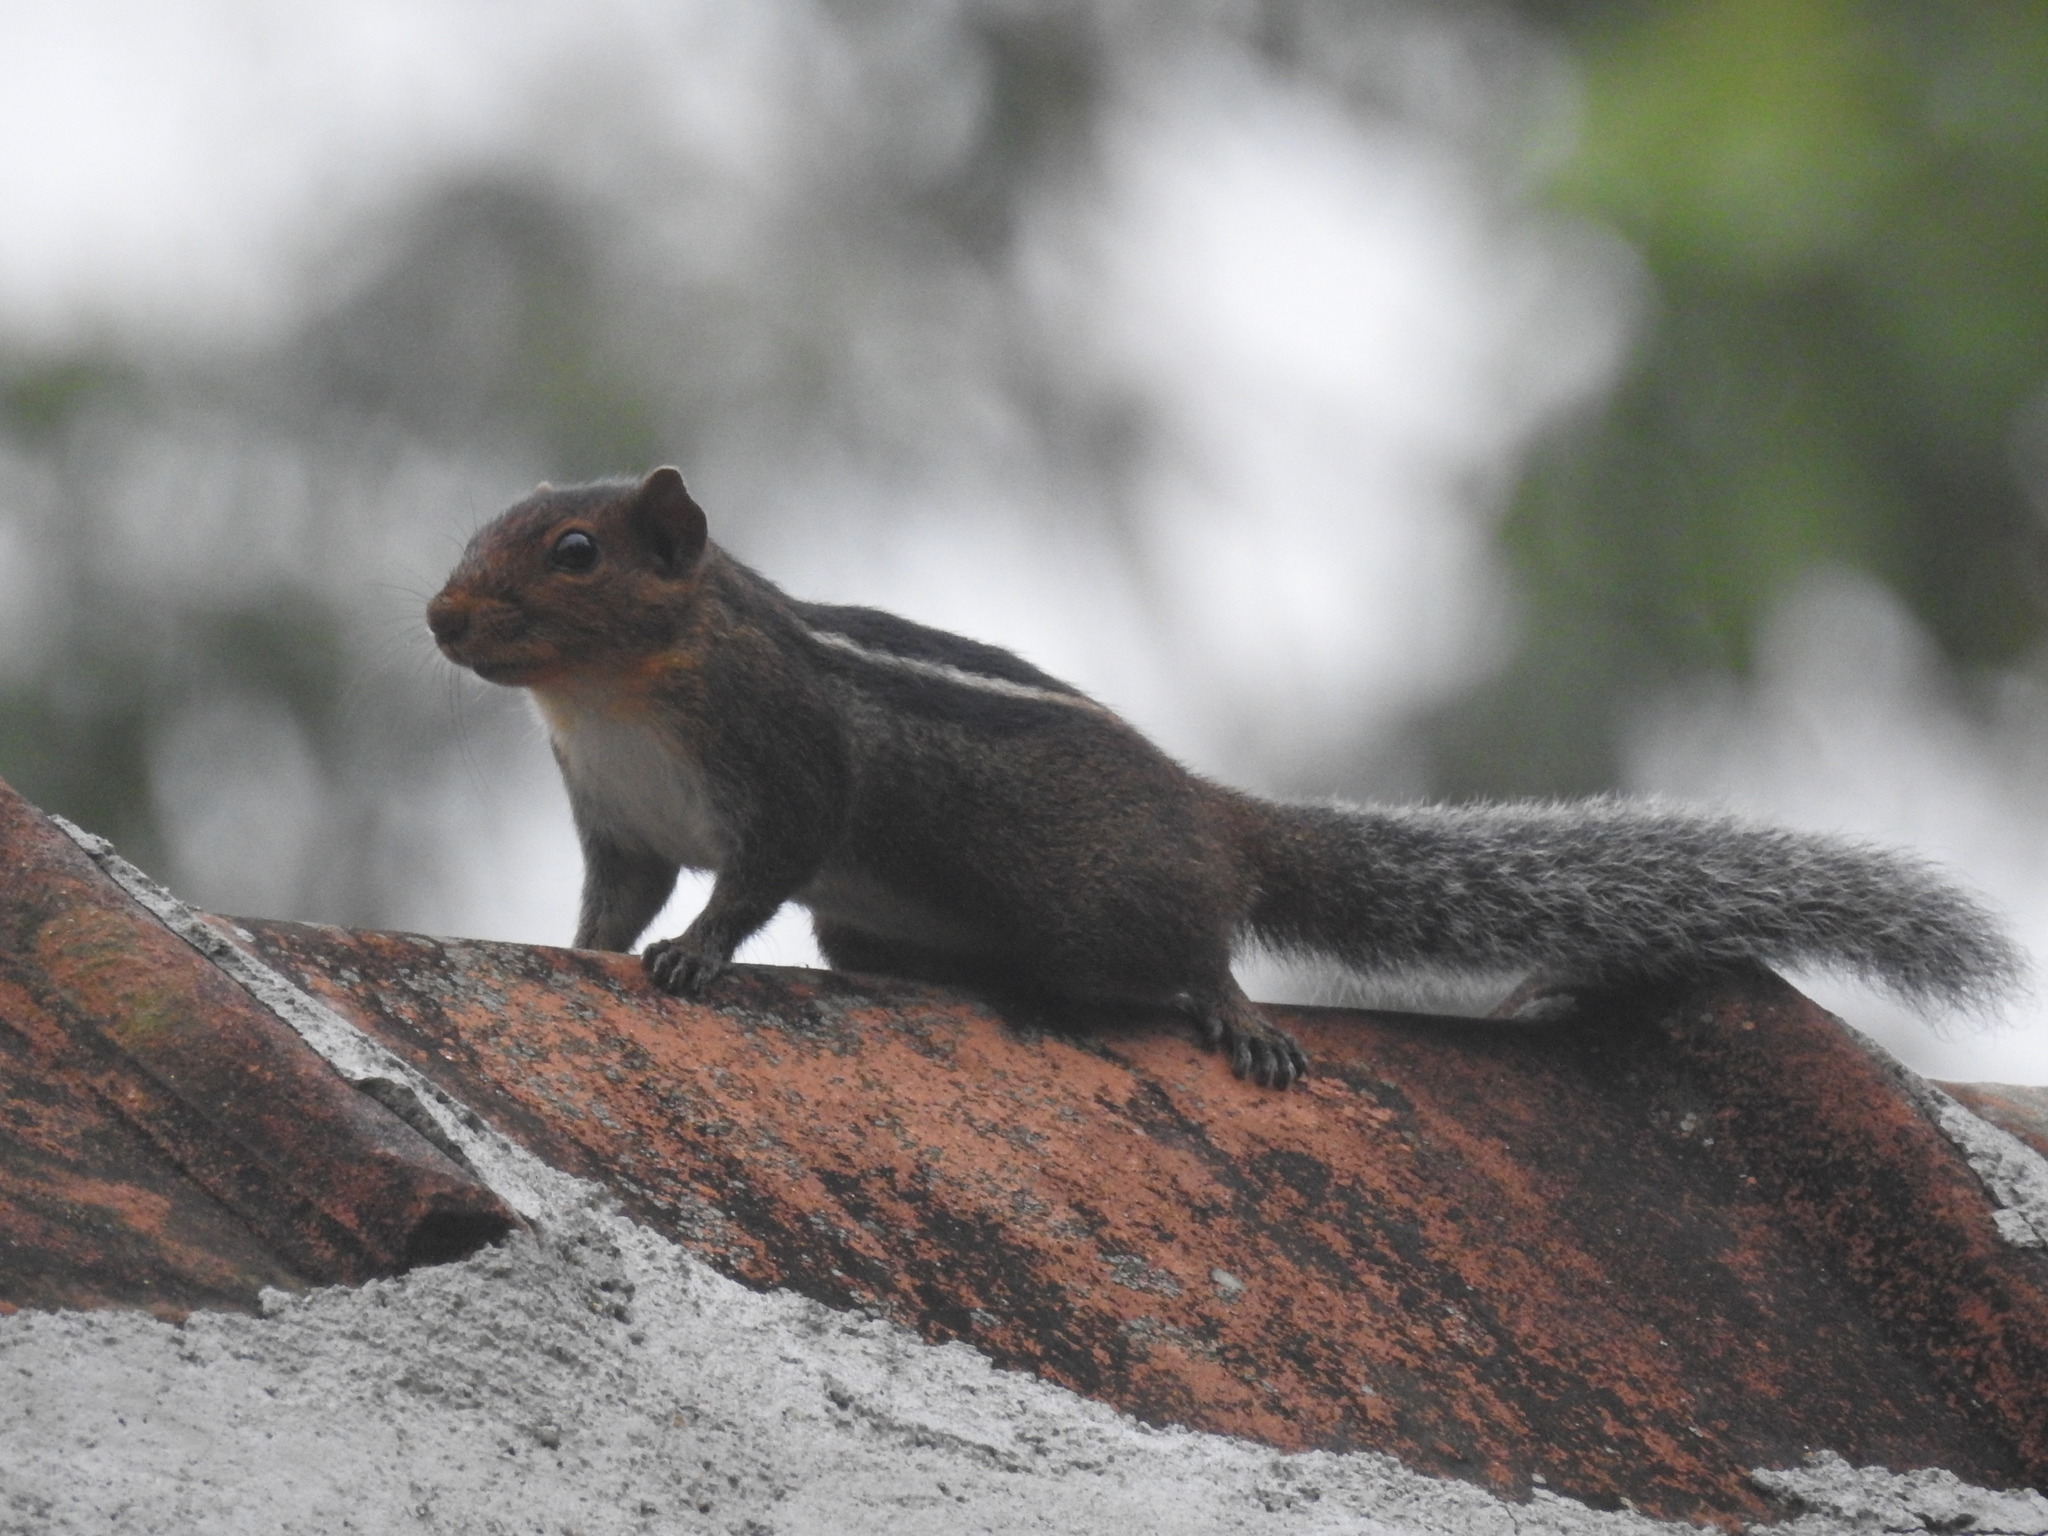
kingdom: Animalia
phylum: Chordata
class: Mammalia
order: Rodentia
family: Sciuridae
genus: Funambulus
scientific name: Funambulus tristriatus
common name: Jungle palm squirrel
